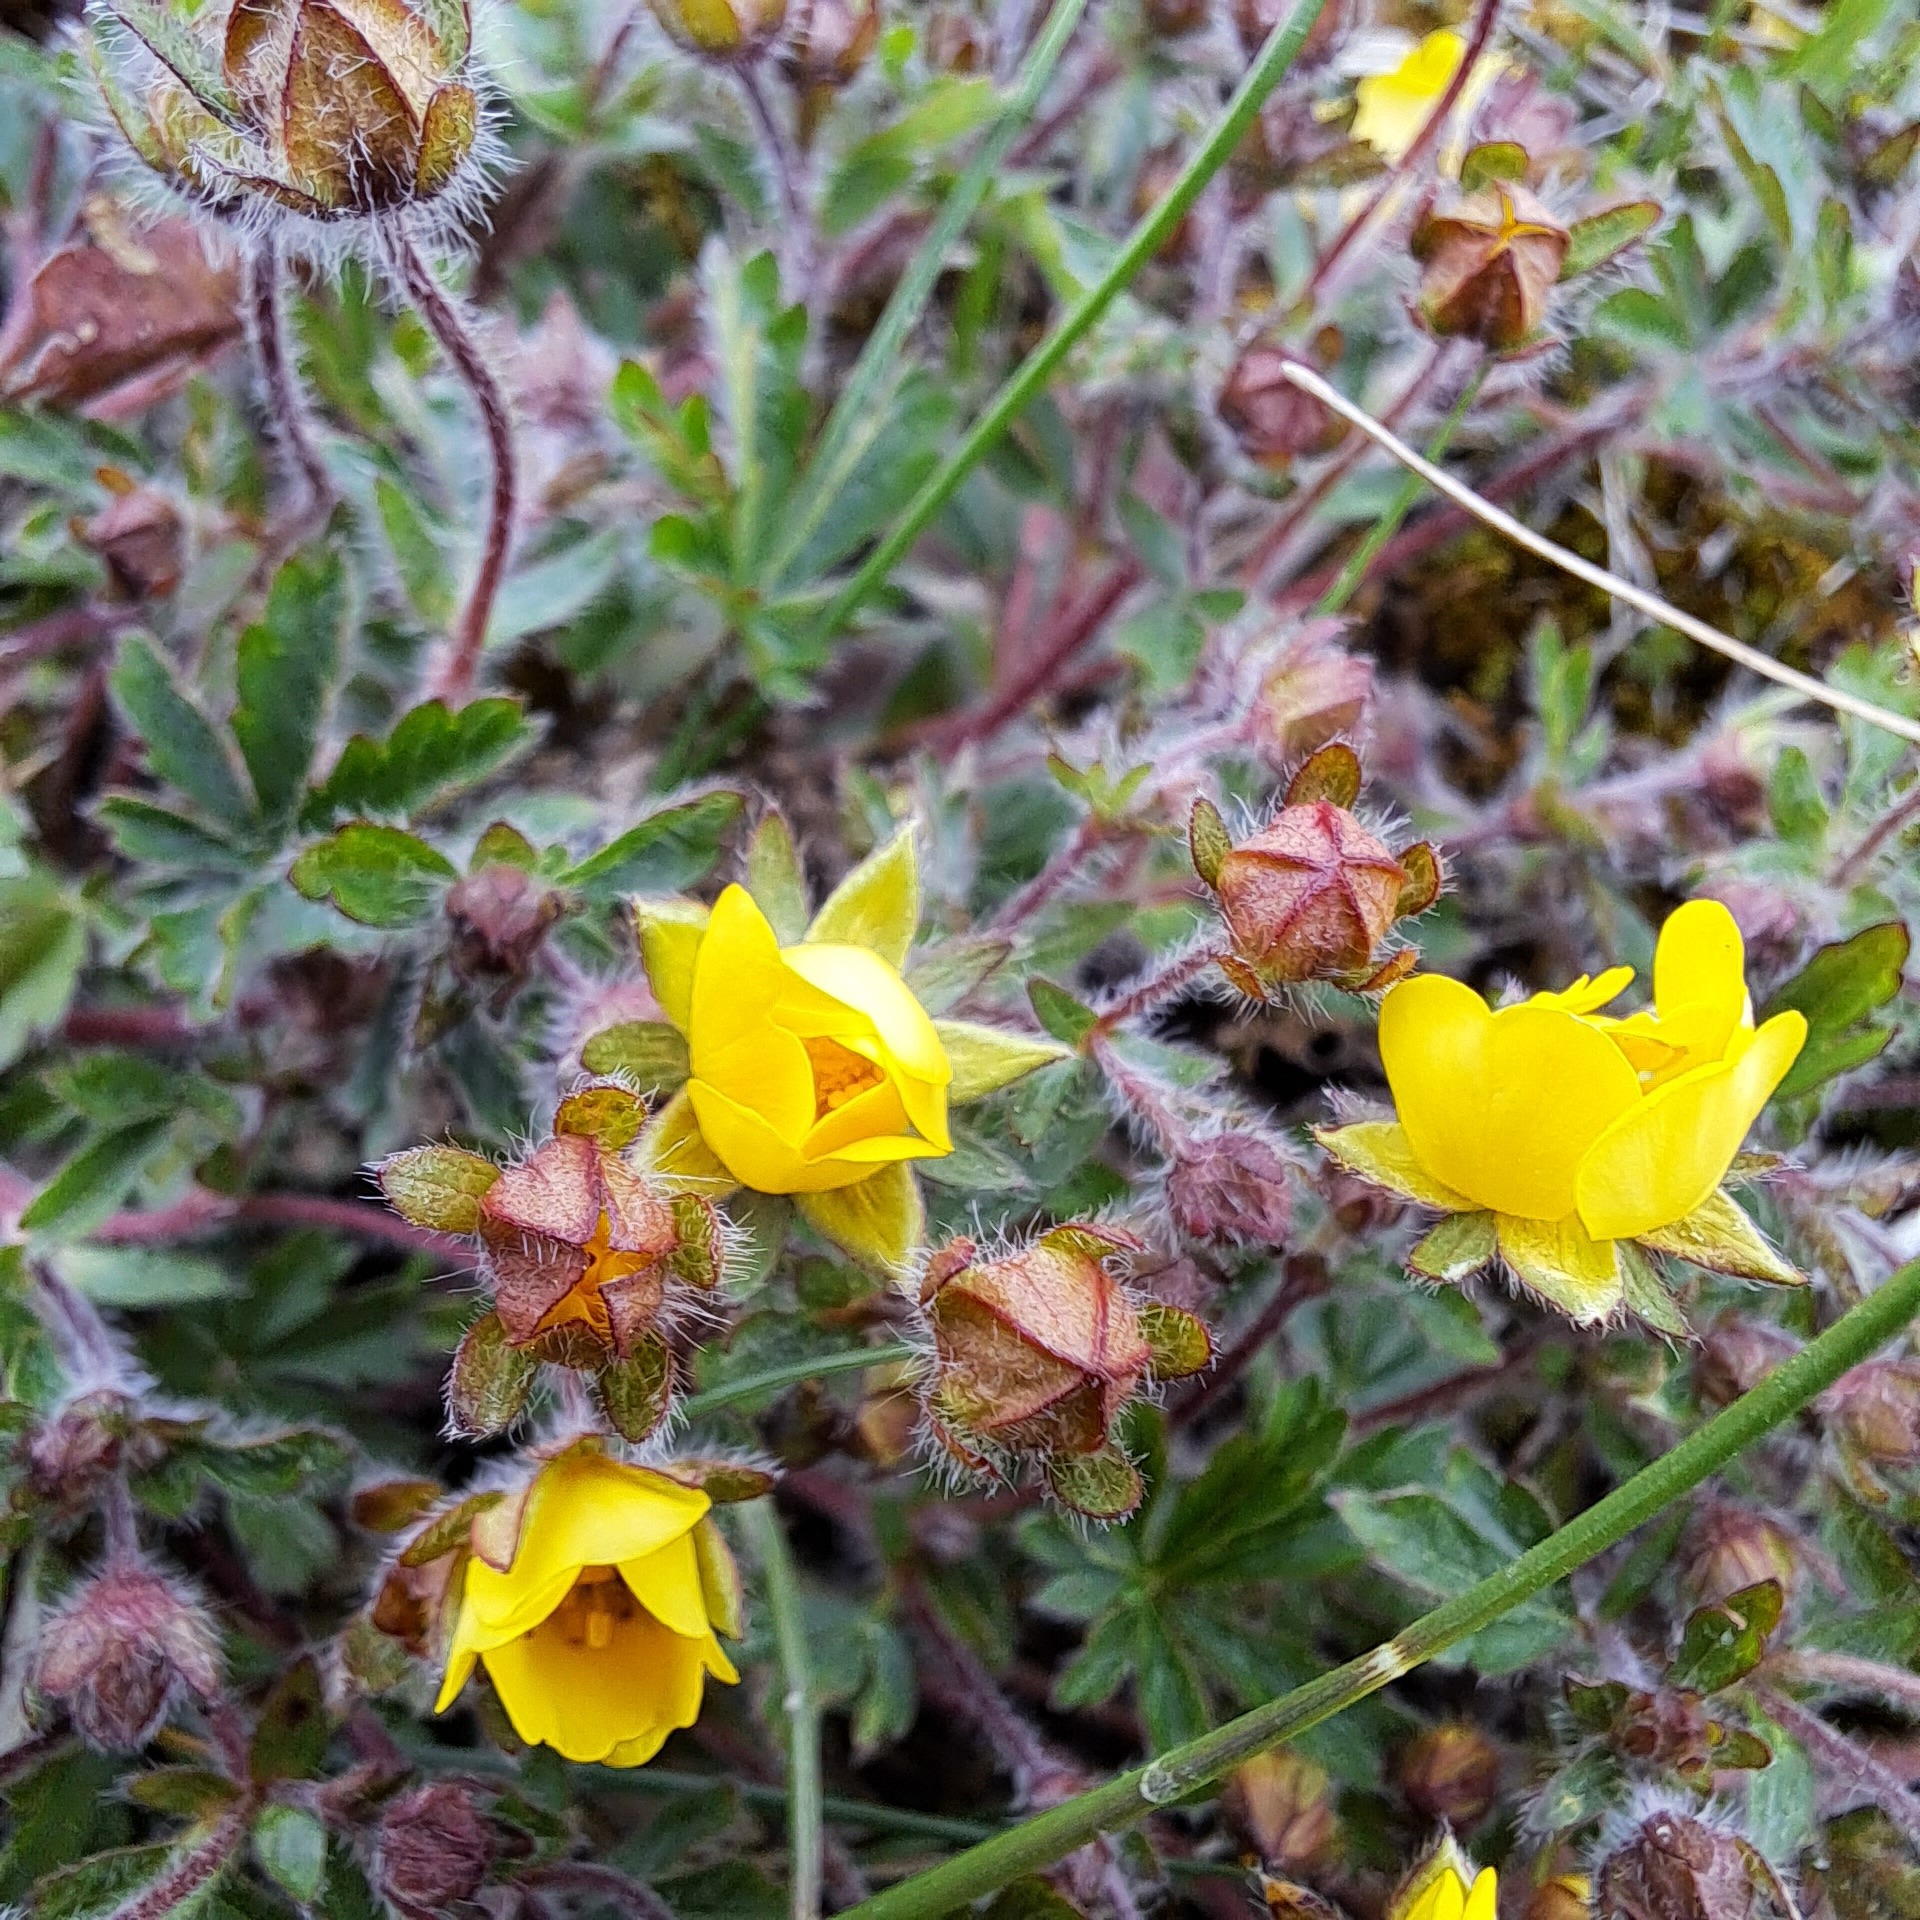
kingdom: Plantae
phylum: Tracheophyta
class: Magnoliopsida
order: Rosales
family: Rosaceae
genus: Potentilla
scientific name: Potentilla heptaphylla
